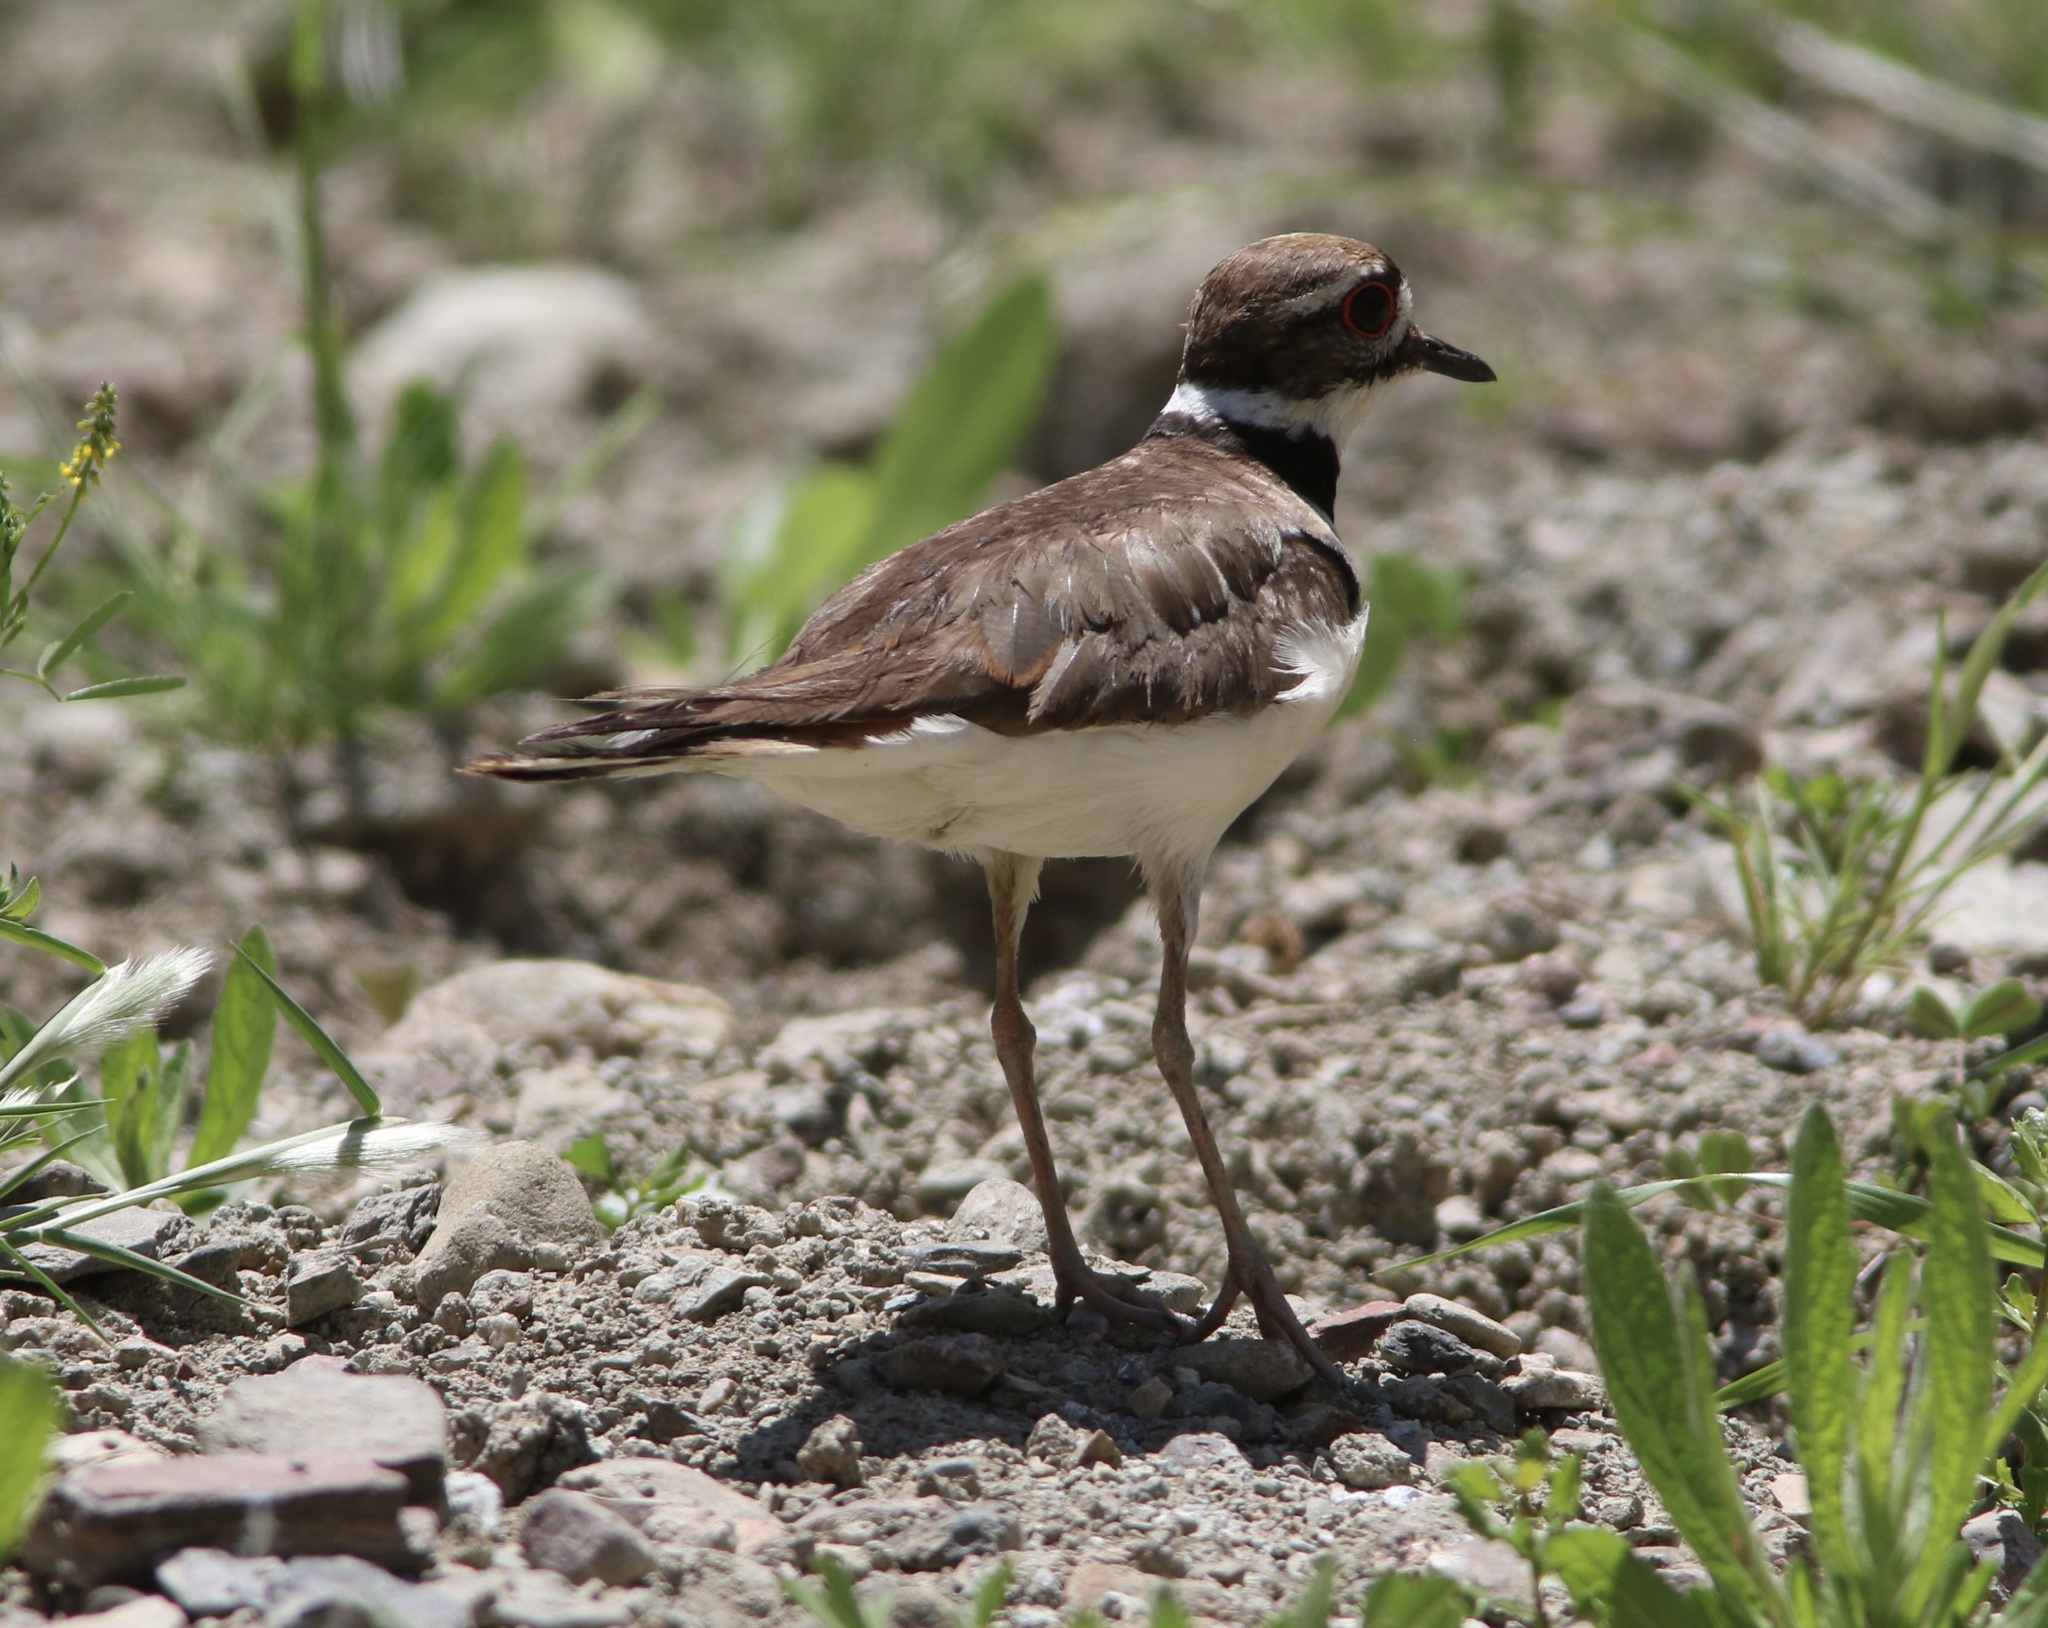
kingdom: Animalia
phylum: Chordata
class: Aves
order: Charadriiformes
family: Charadriidae
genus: Charadrius
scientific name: Charadrius vociferus
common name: Killdeer
